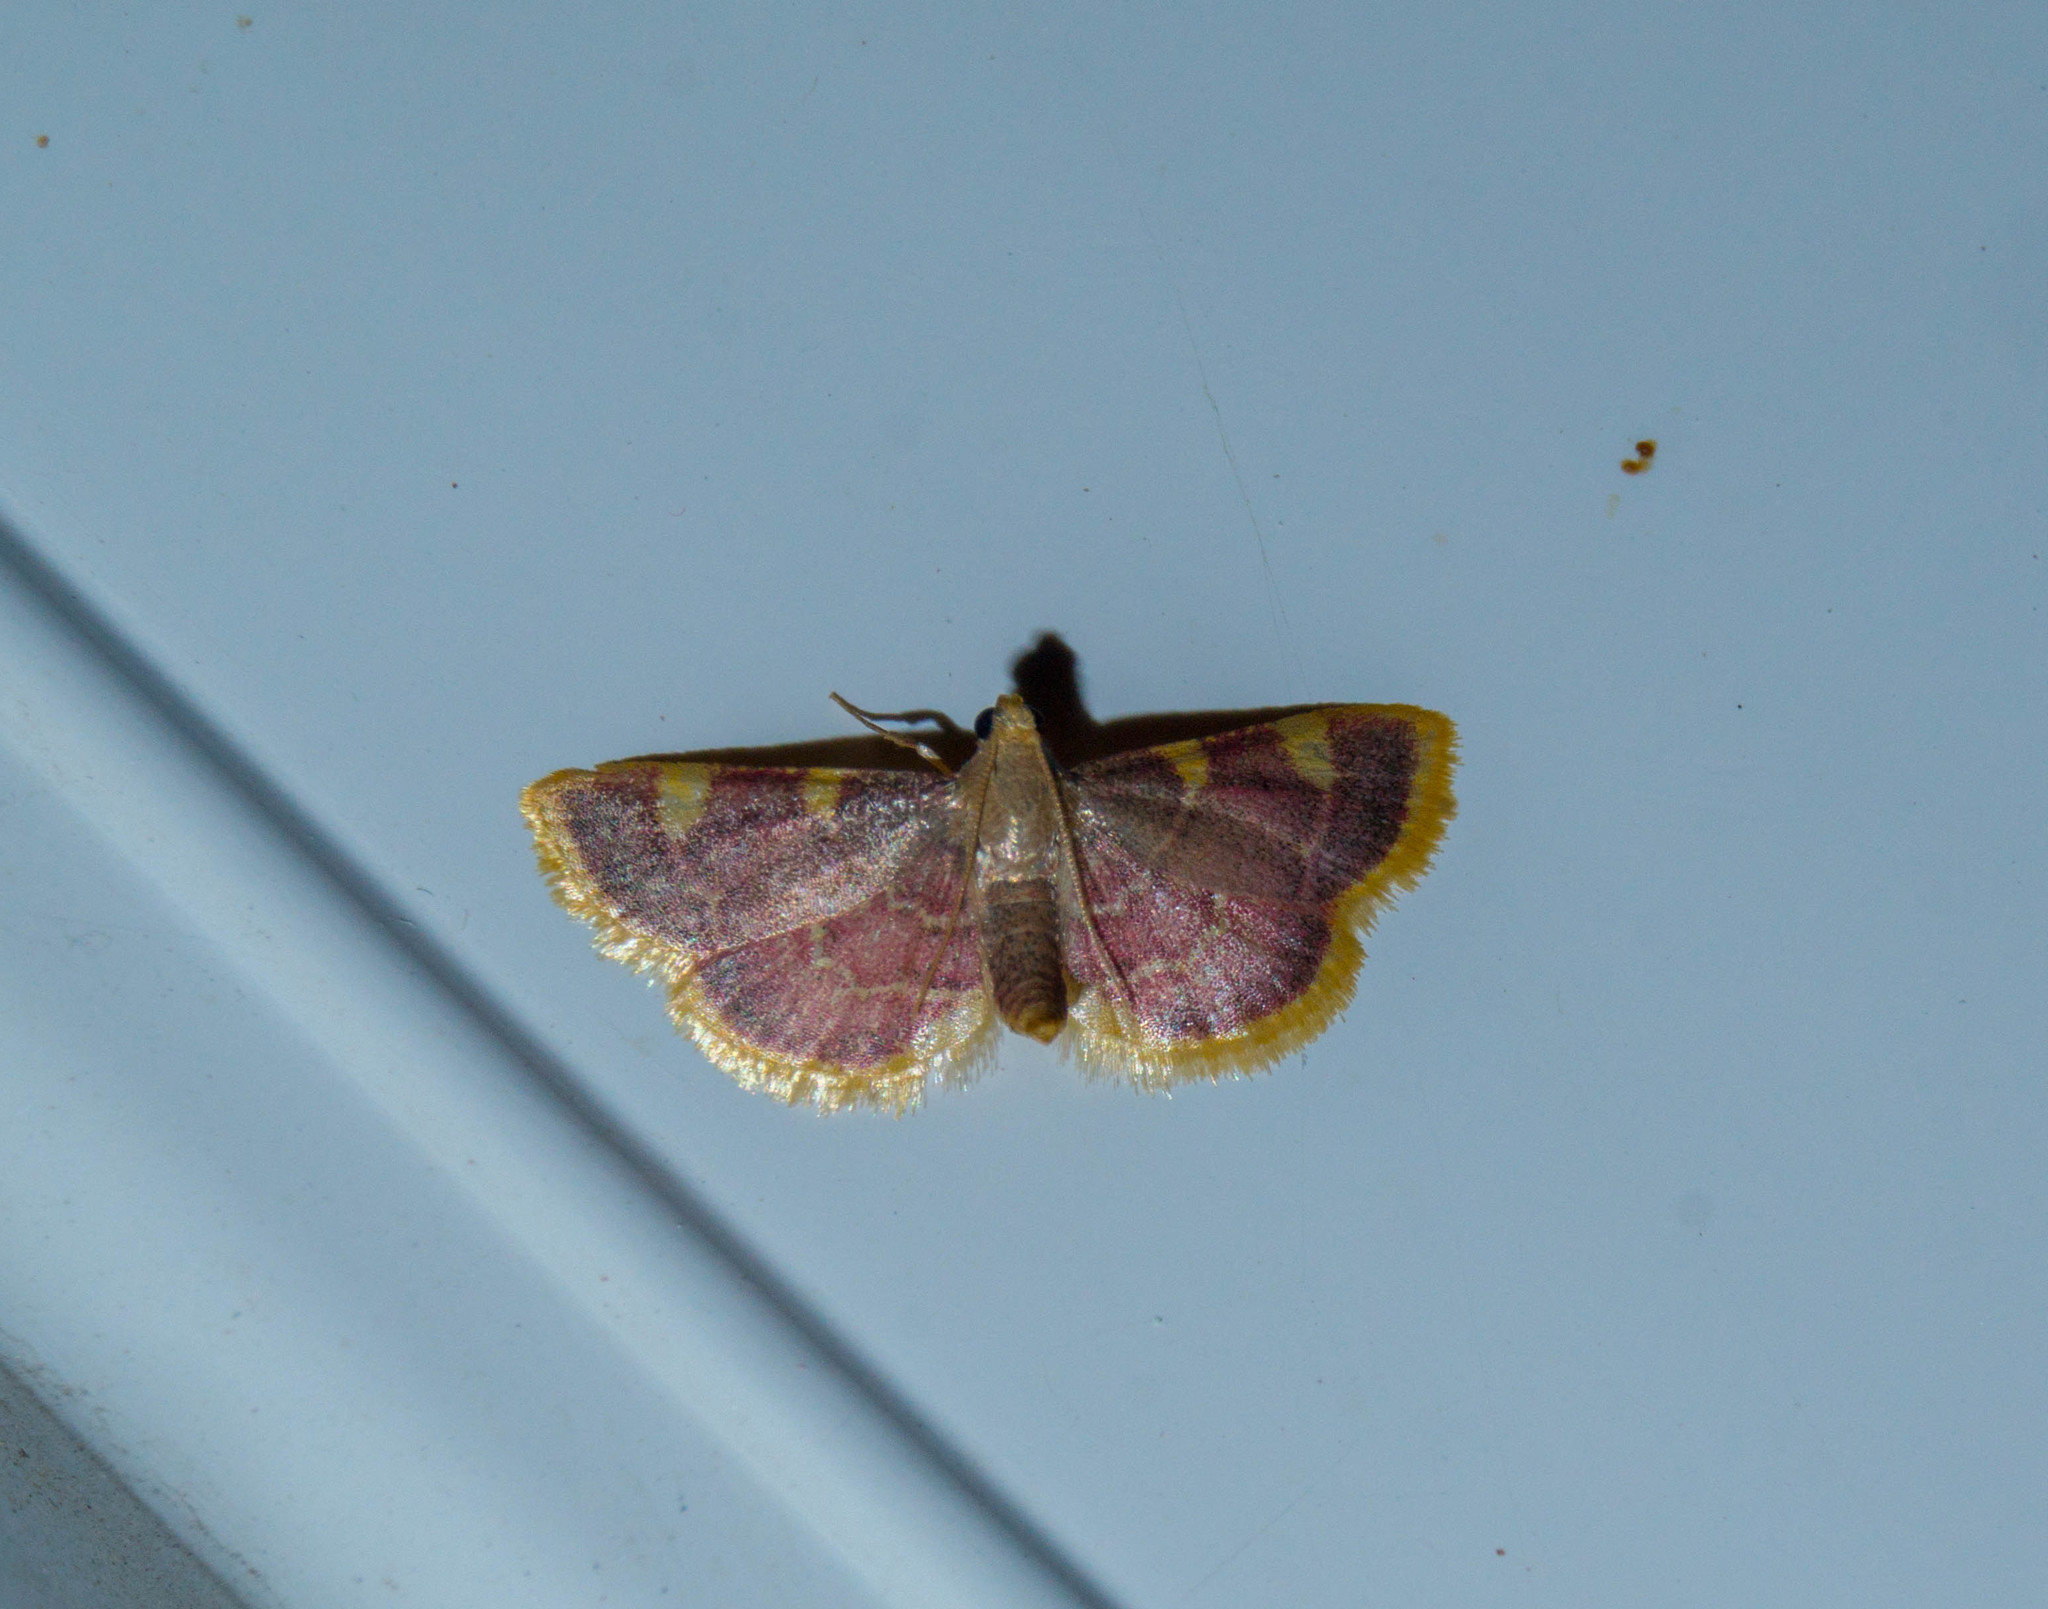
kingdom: Animalia
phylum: Arthropoda
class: Insecta
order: Lepidoptera
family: Pyralidae
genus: Hypsopygia
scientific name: Hypsopygia costalis
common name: Gold triangle
